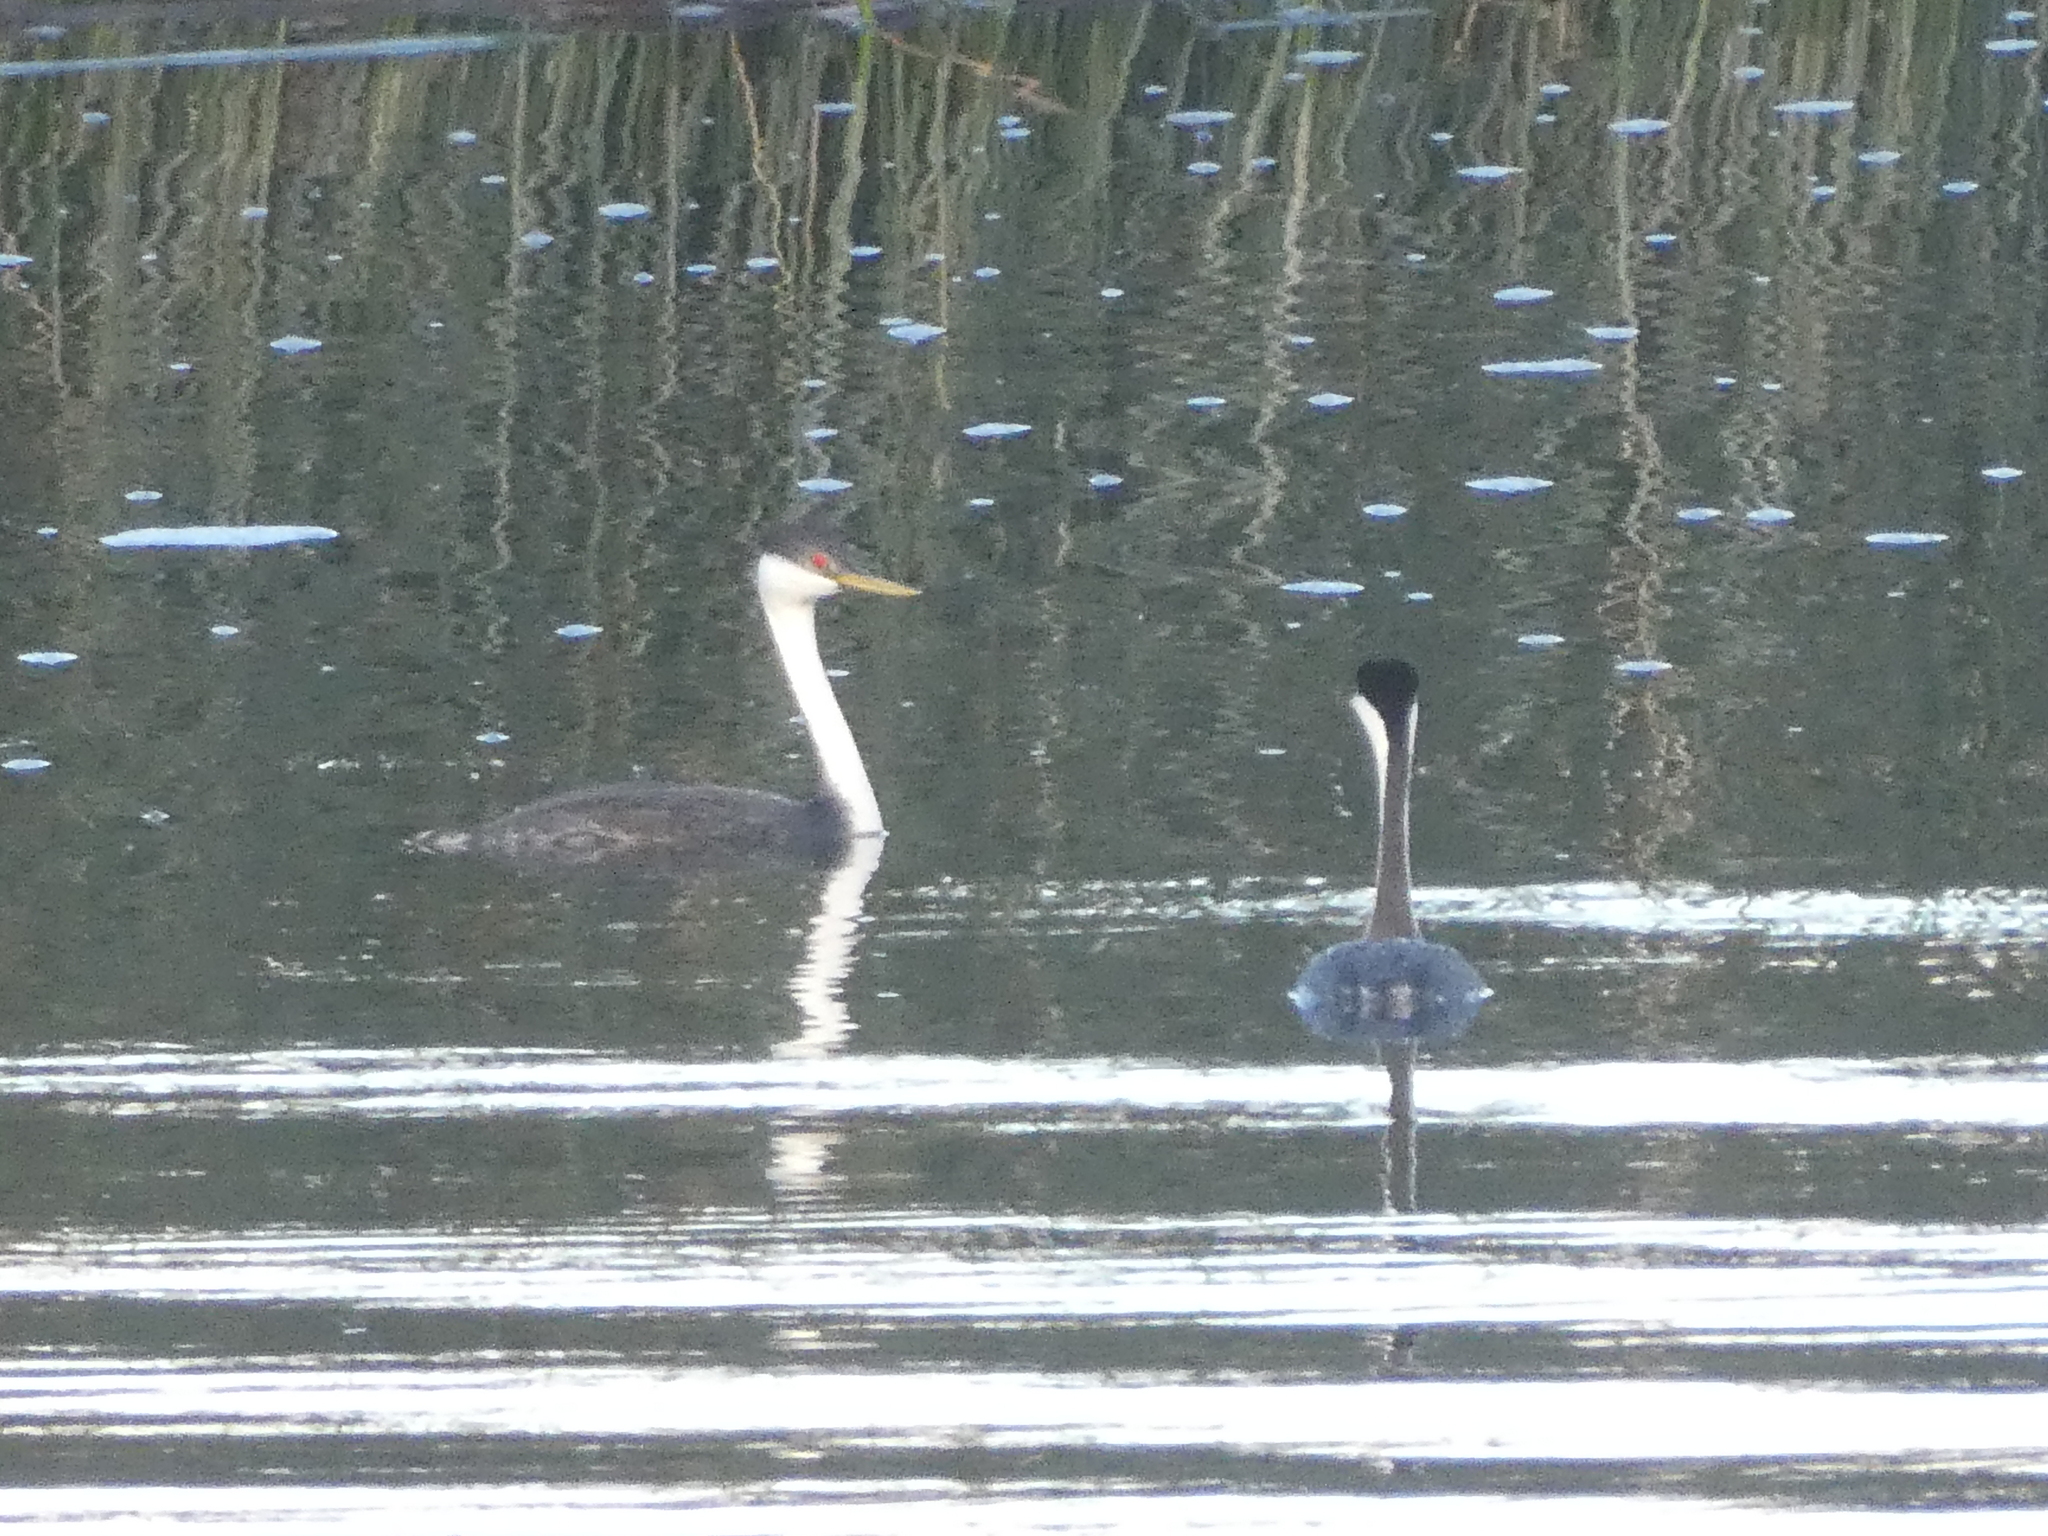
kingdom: Animalia
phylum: Chordata
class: Aves
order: Podicipediformes
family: Podicipedidae
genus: Aechmophorus
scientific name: Aechmophorus occidentalis
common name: Western grebe
